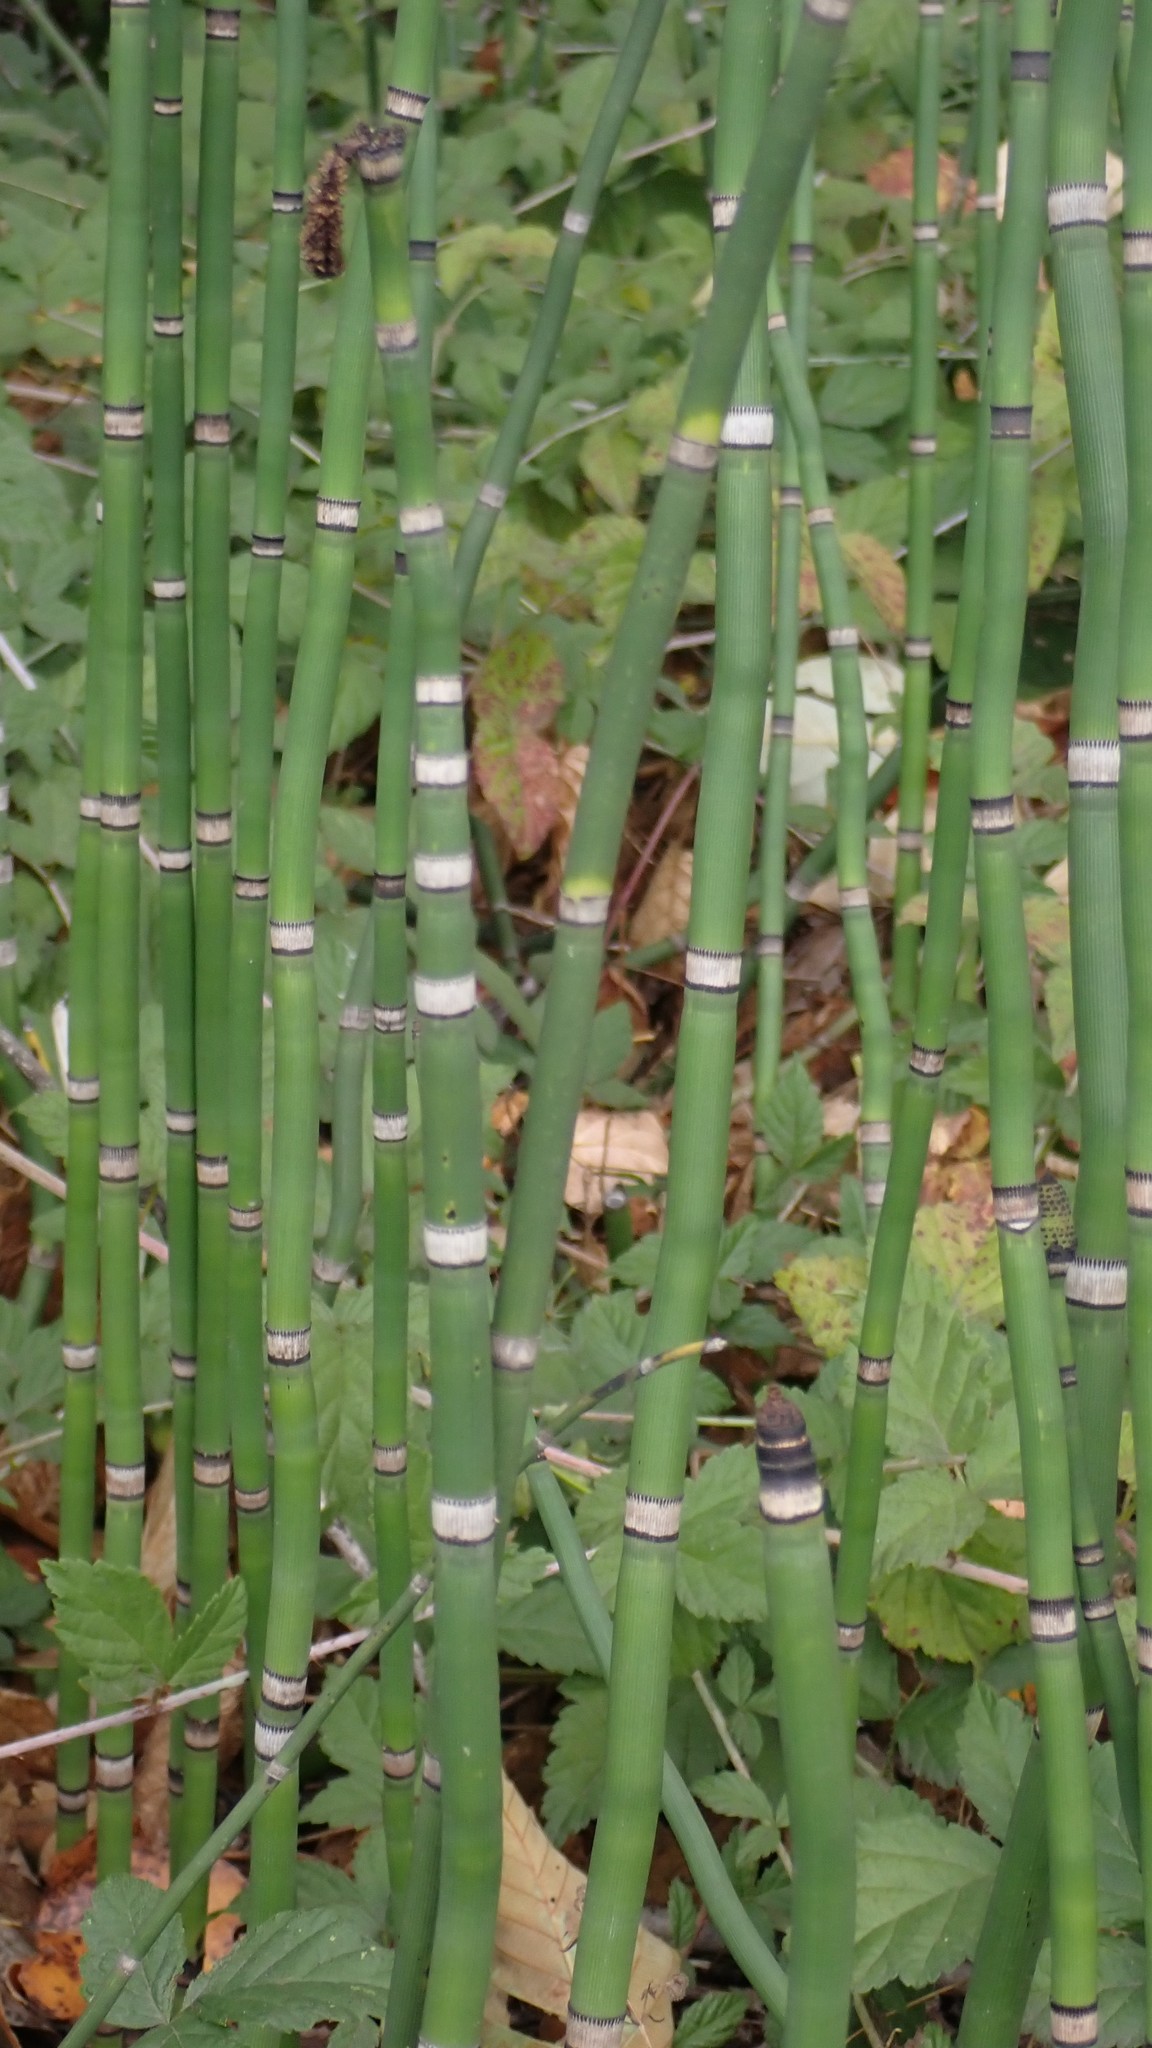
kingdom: Plantae
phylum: Tracheophyta
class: Polypodiopsida
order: Equisetales
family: Equisetaceae
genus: Equisetum
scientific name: Equisetum praealtum
